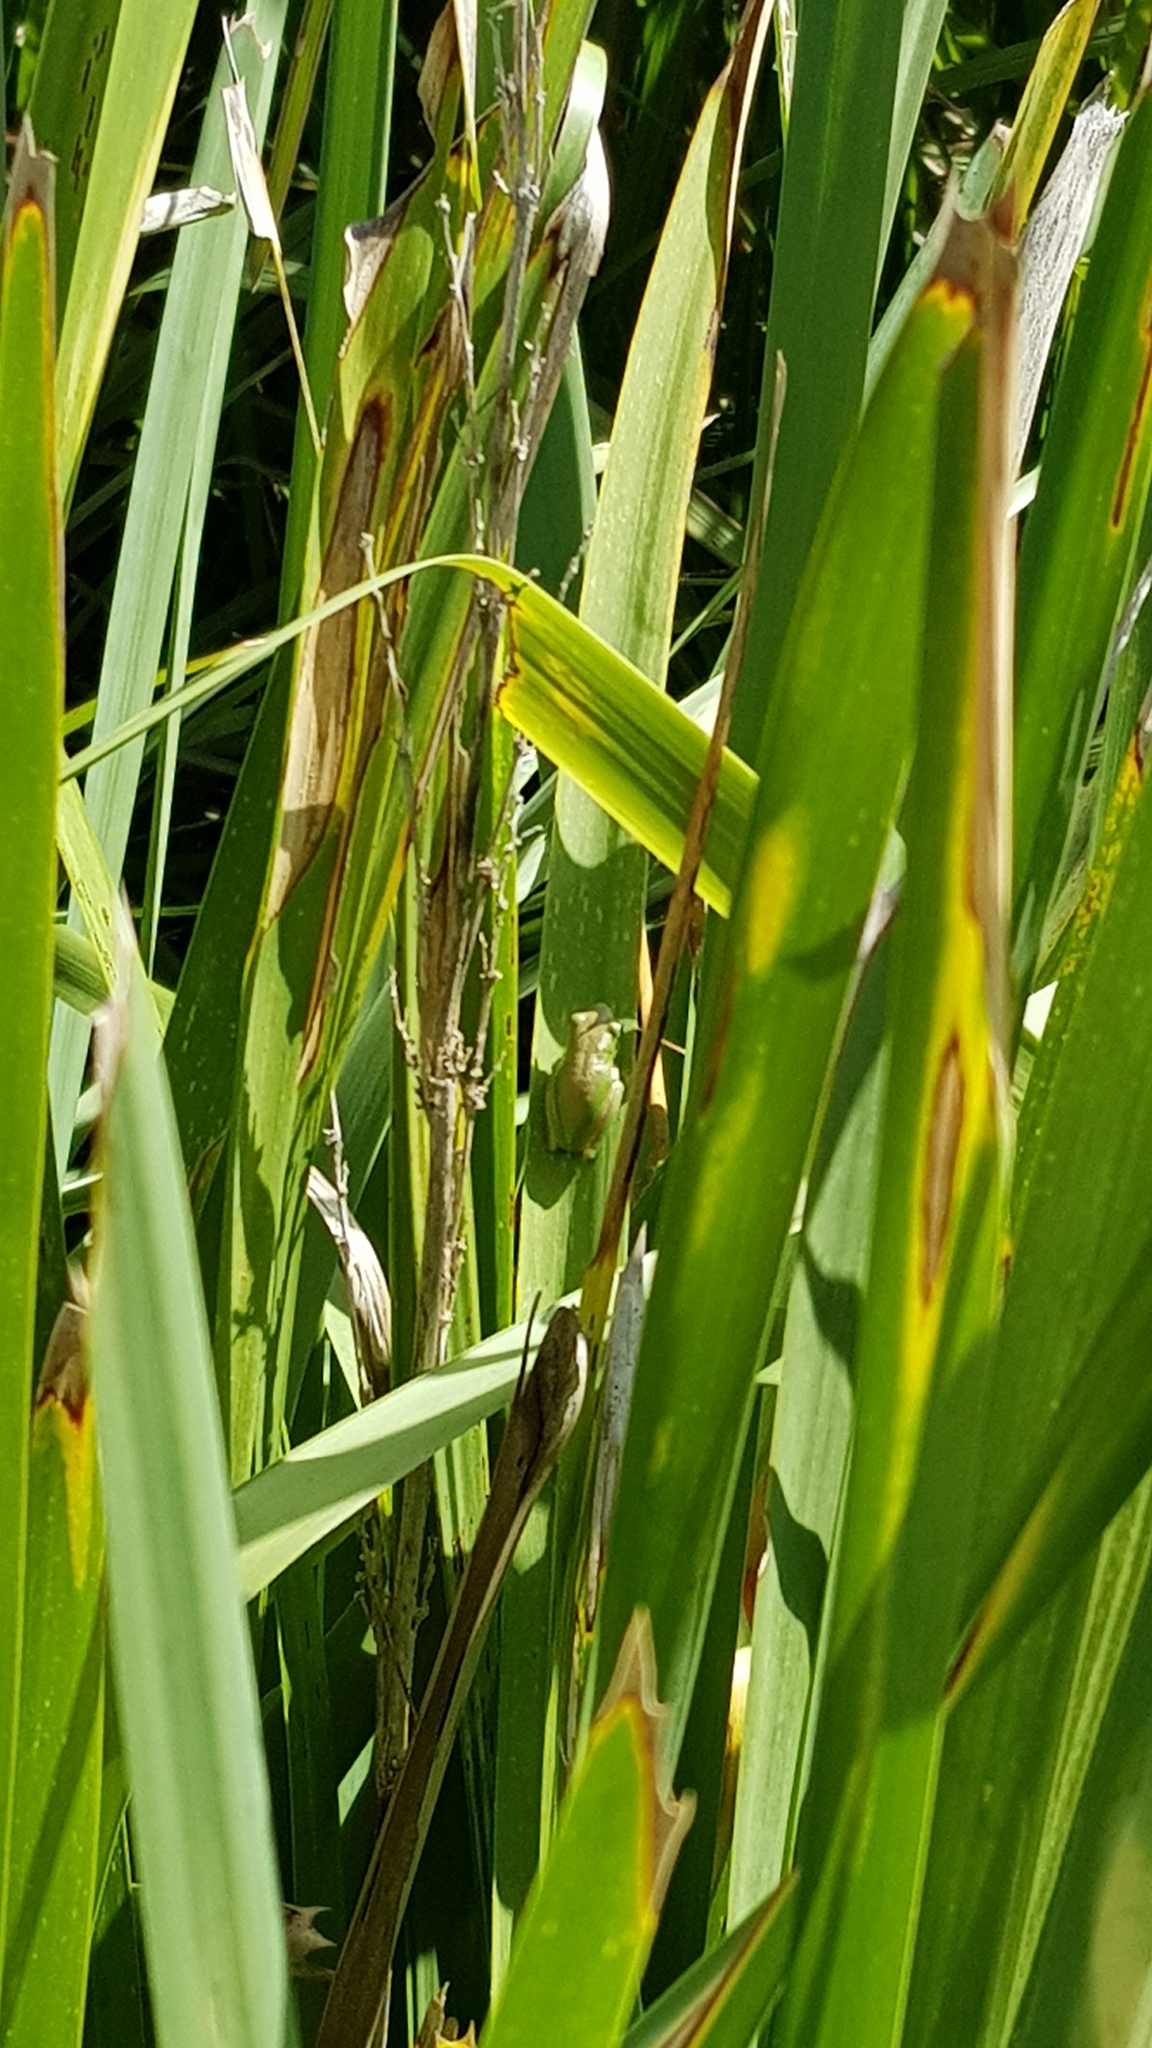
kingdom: Animalia
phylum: Chordata
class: Amphibia
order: Anura
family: Pelodryadidae
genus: Litoria
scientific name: Litoria fallax
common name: Eastern dwarf treefrog
